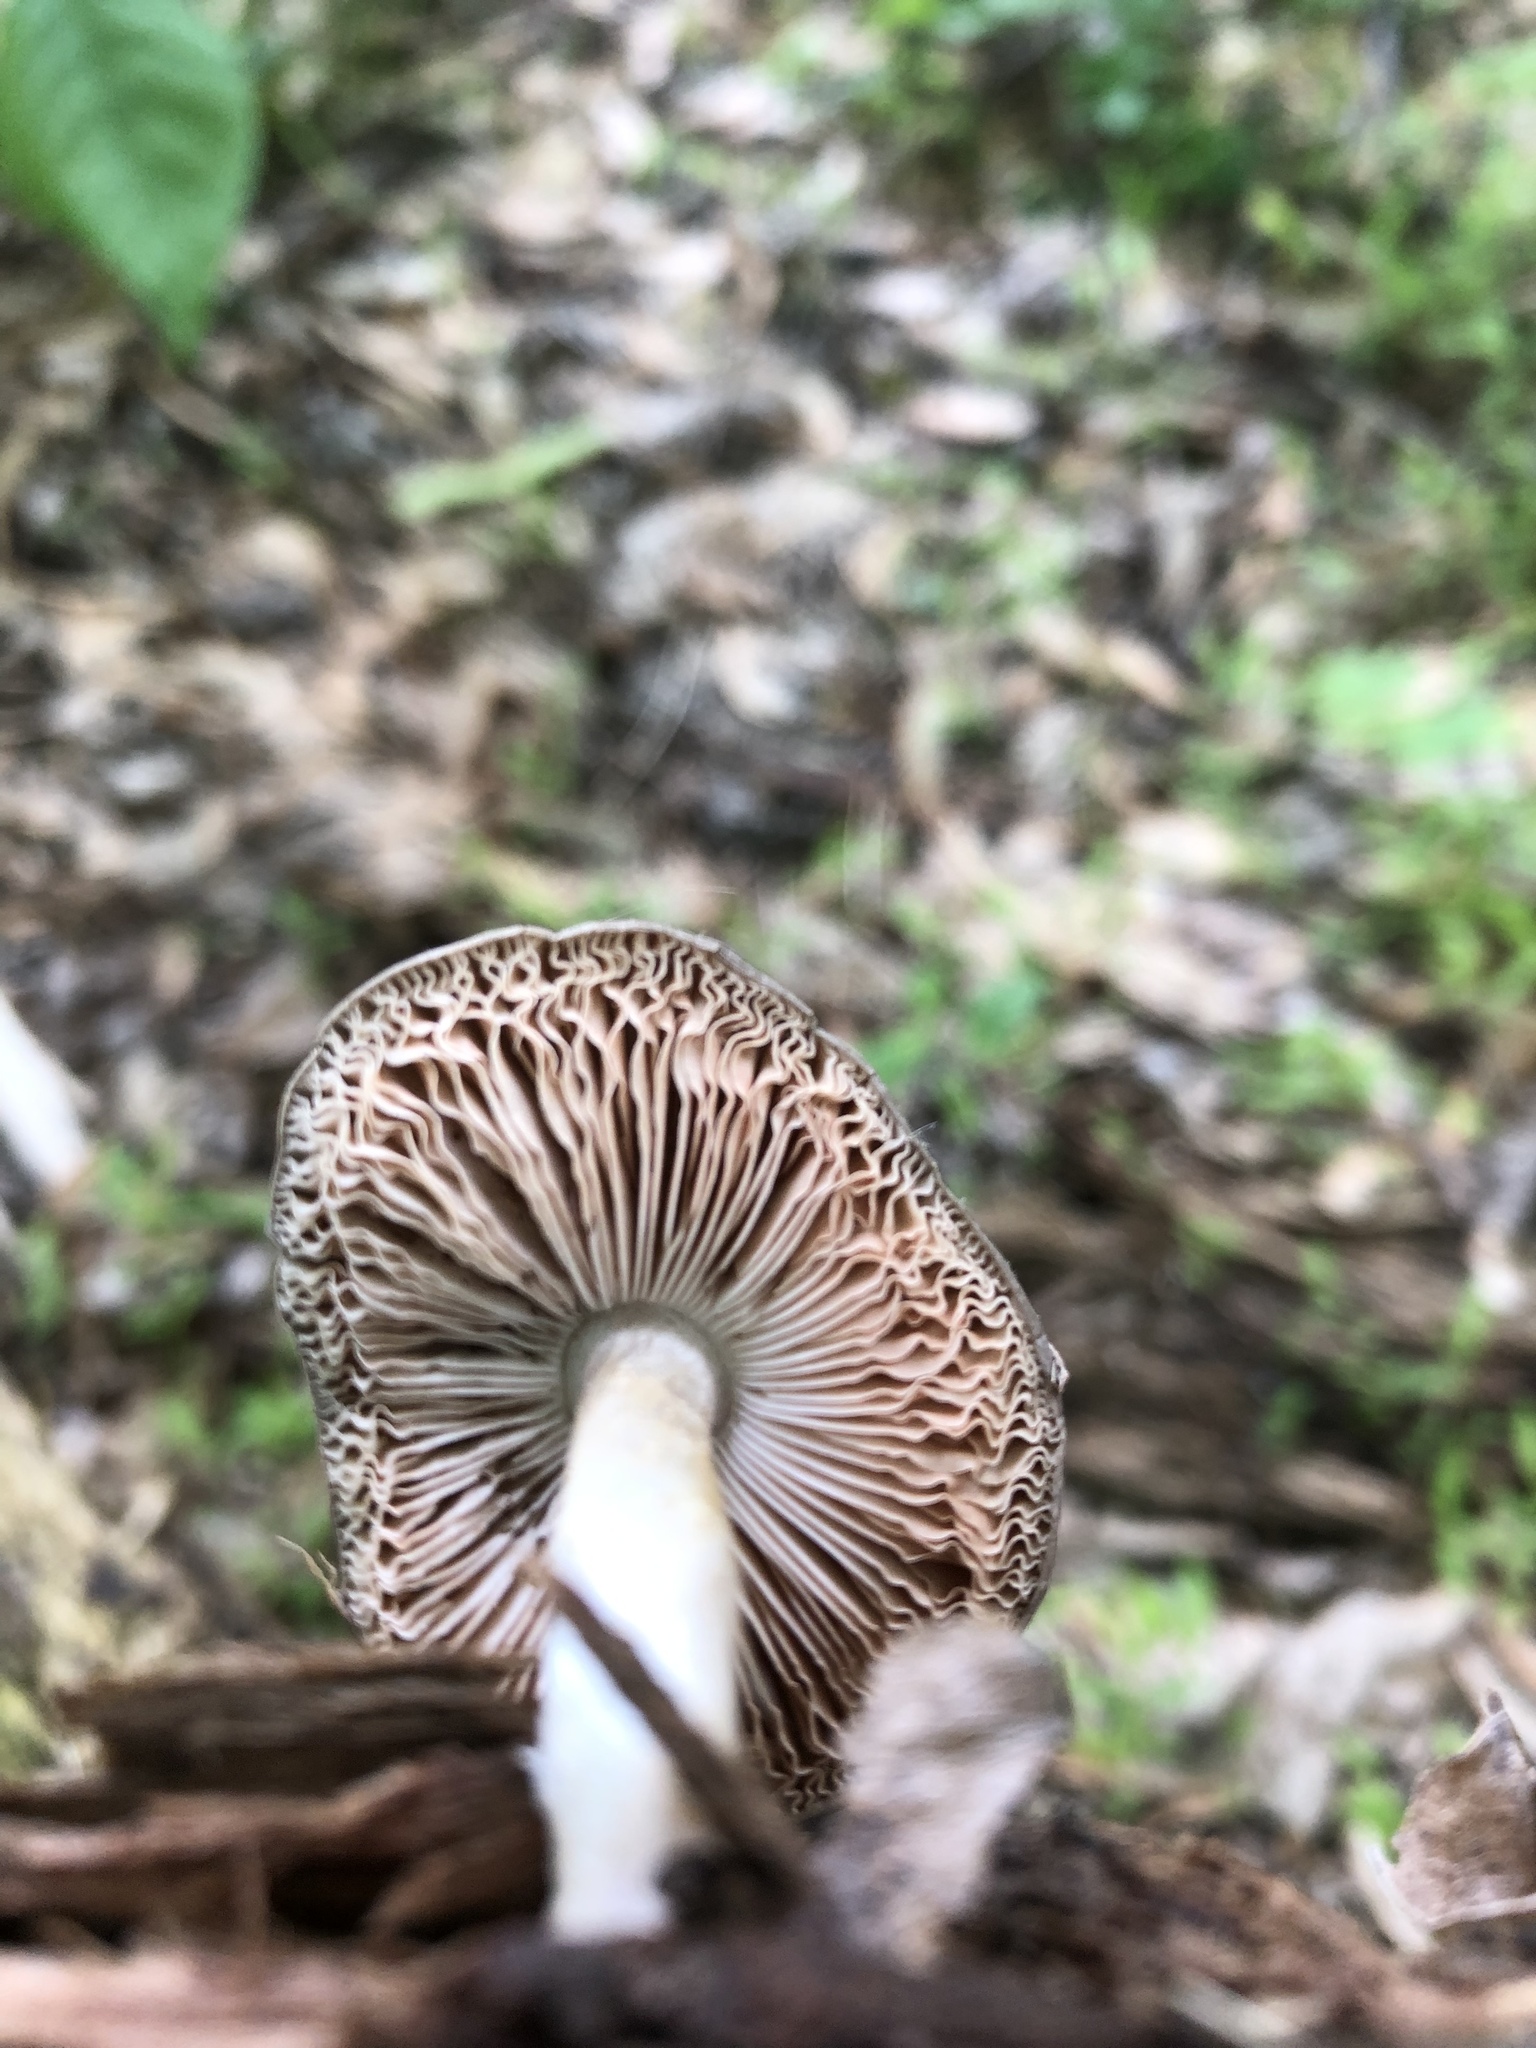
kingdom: Fungi
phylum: Basidiomycota
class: Agaricomycetes
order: Agaricales
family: Pluteaceae
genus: Pluteus
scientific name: Pluteus cervinus
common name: Deer shield
